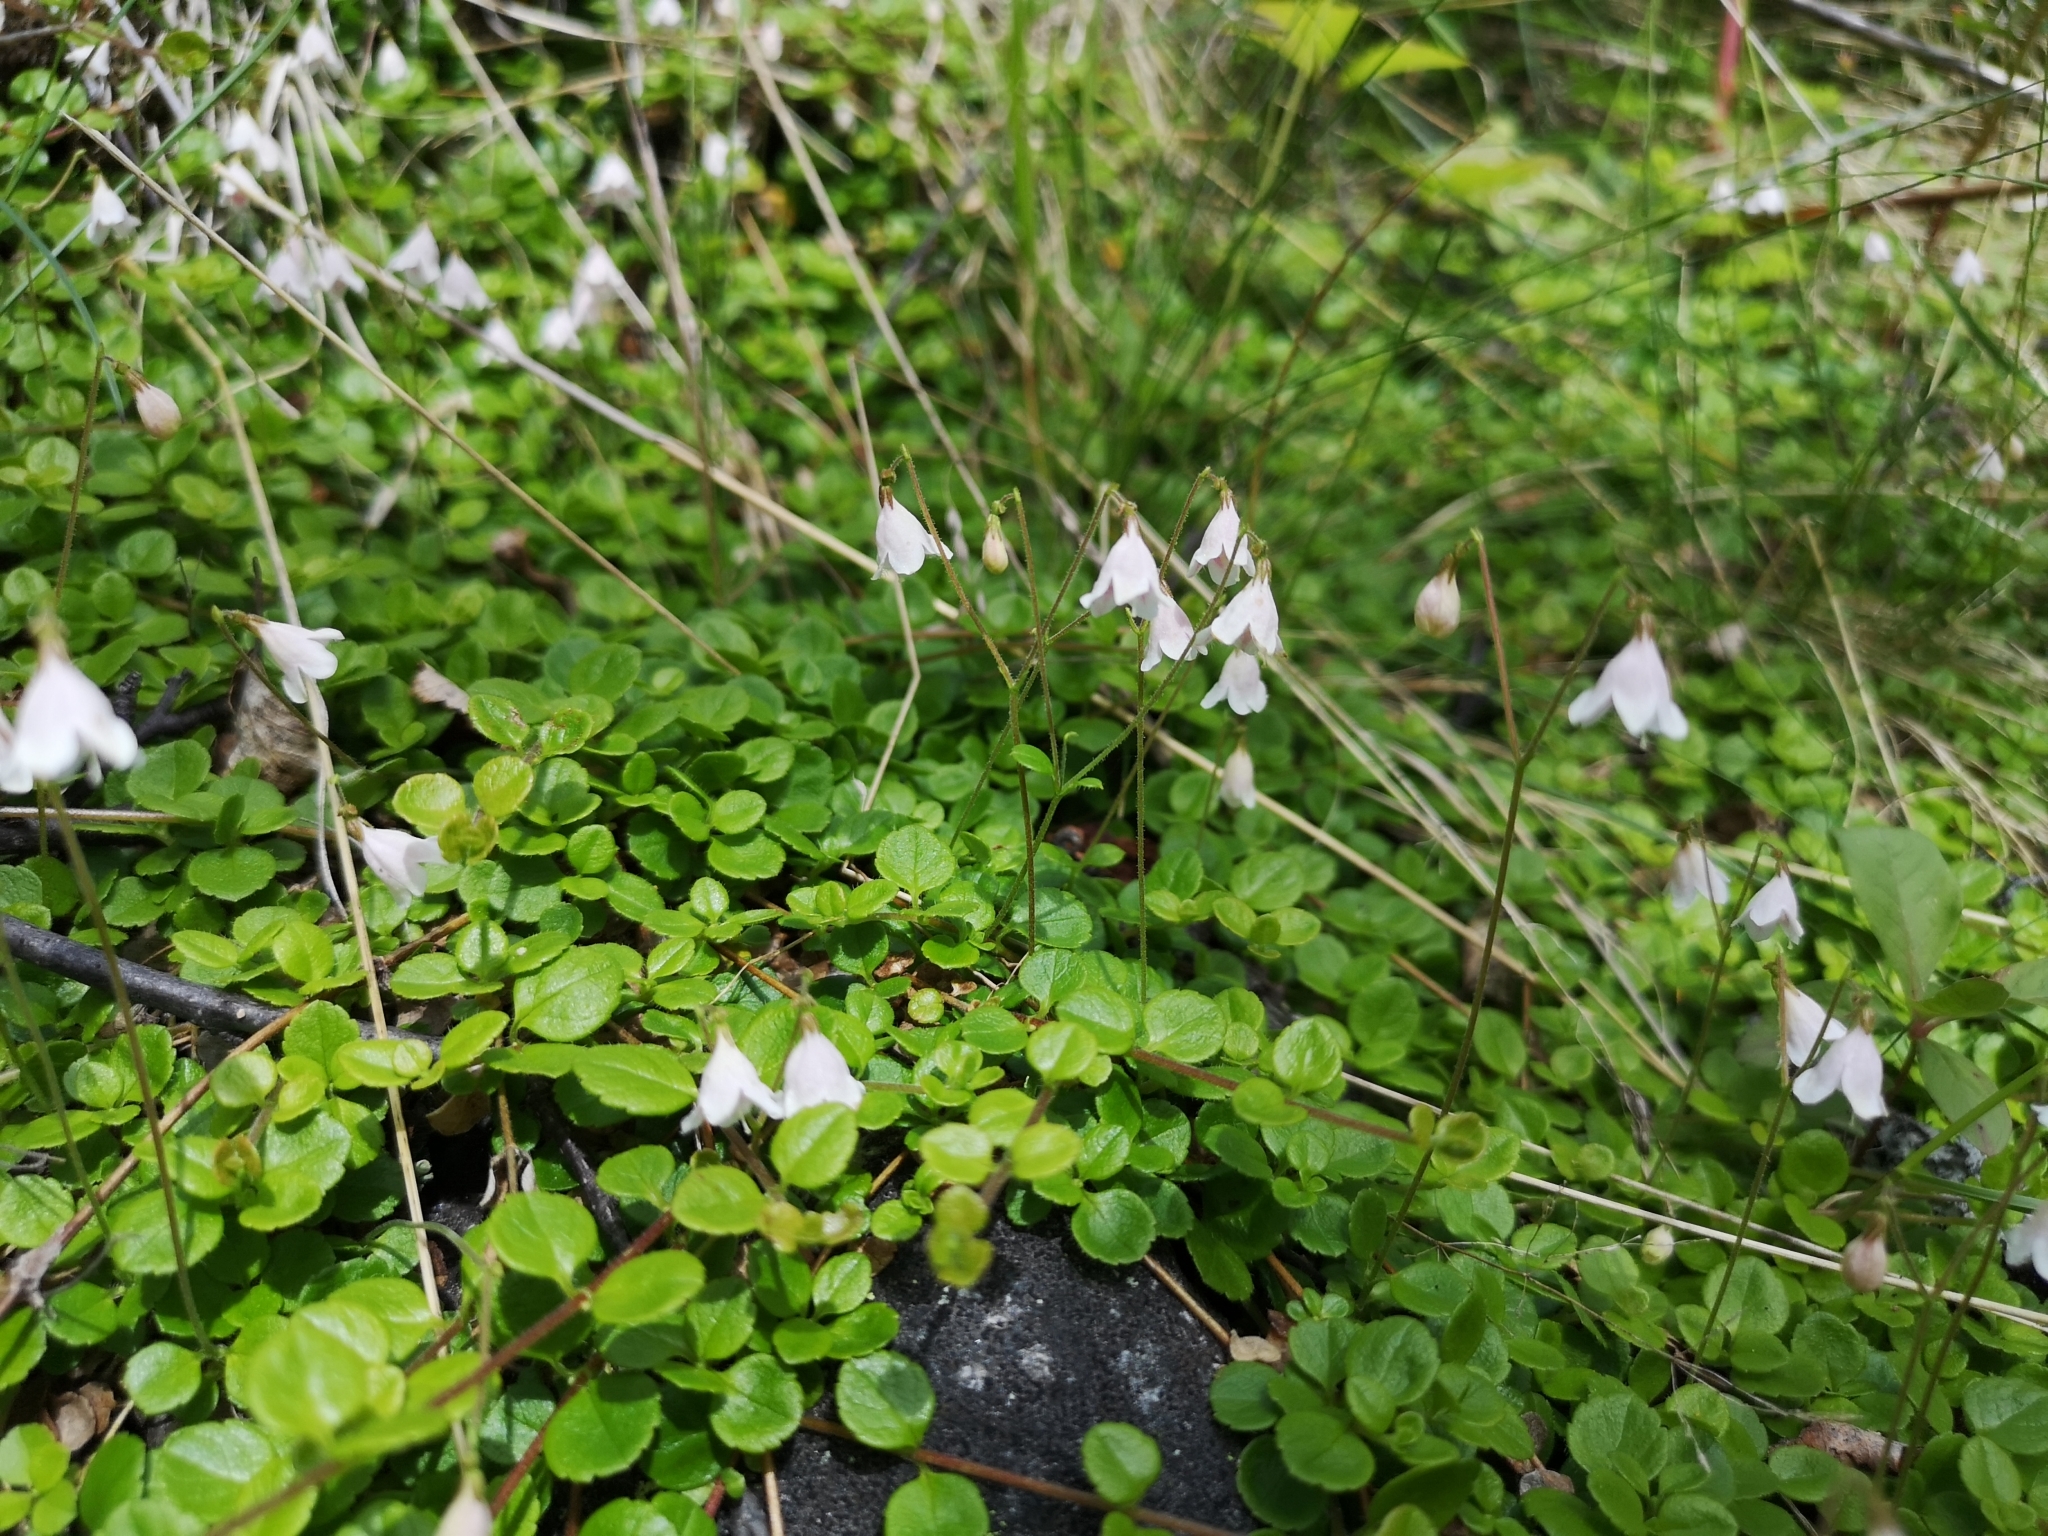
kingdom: Plantae
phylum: Tracheophyta
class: Magnoliopsida
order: Dipsacales
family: Caprifoliaceae
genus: Linnaea
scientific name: Linnaea borealis
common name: Twinflower
